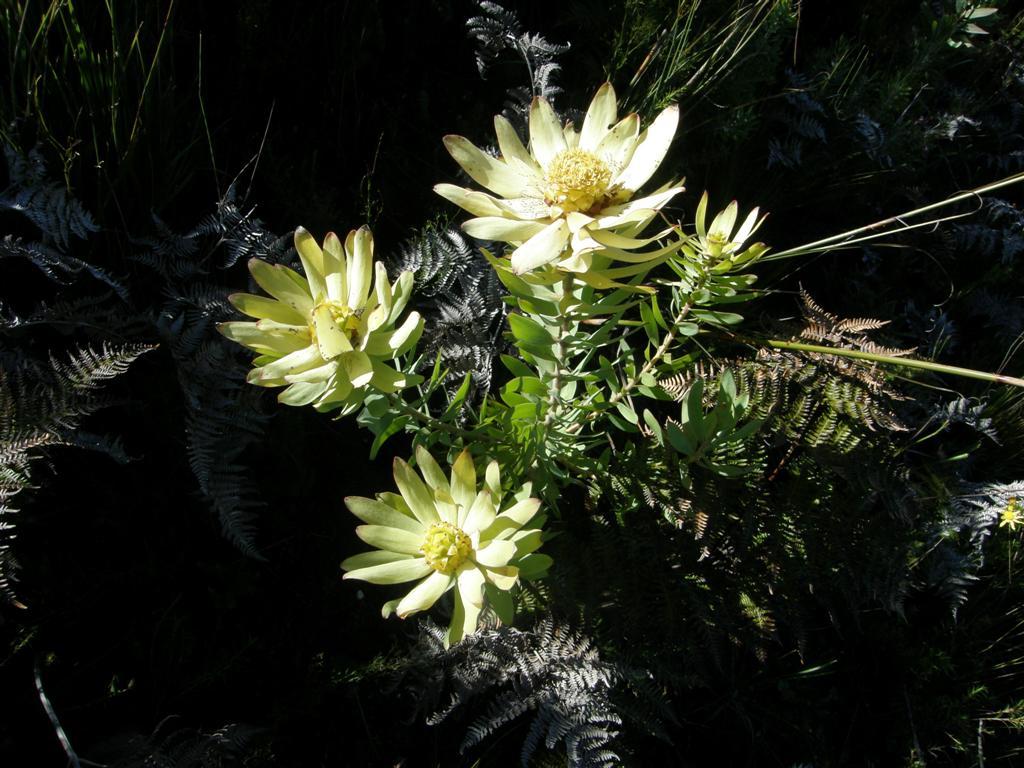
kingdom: Plantae
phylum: Tracheophyta
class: Magnoliopsida
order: Proteales
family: Proteaceae
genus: Leucadendron
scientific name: Leucadendron burchellii
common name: Riviersonderend conebush
